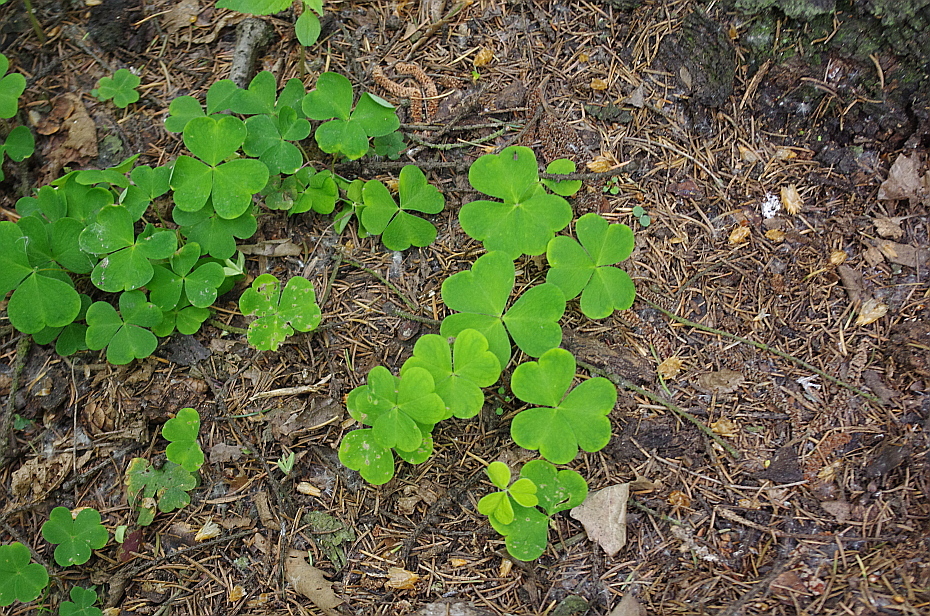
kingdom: Plantae
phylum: Tracheophyta
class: Magnoliopsida
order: Oxalidales
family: Oxalidaceae
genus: Oxalis
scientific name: Oxalis acetosella
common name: Wood-sorrel
